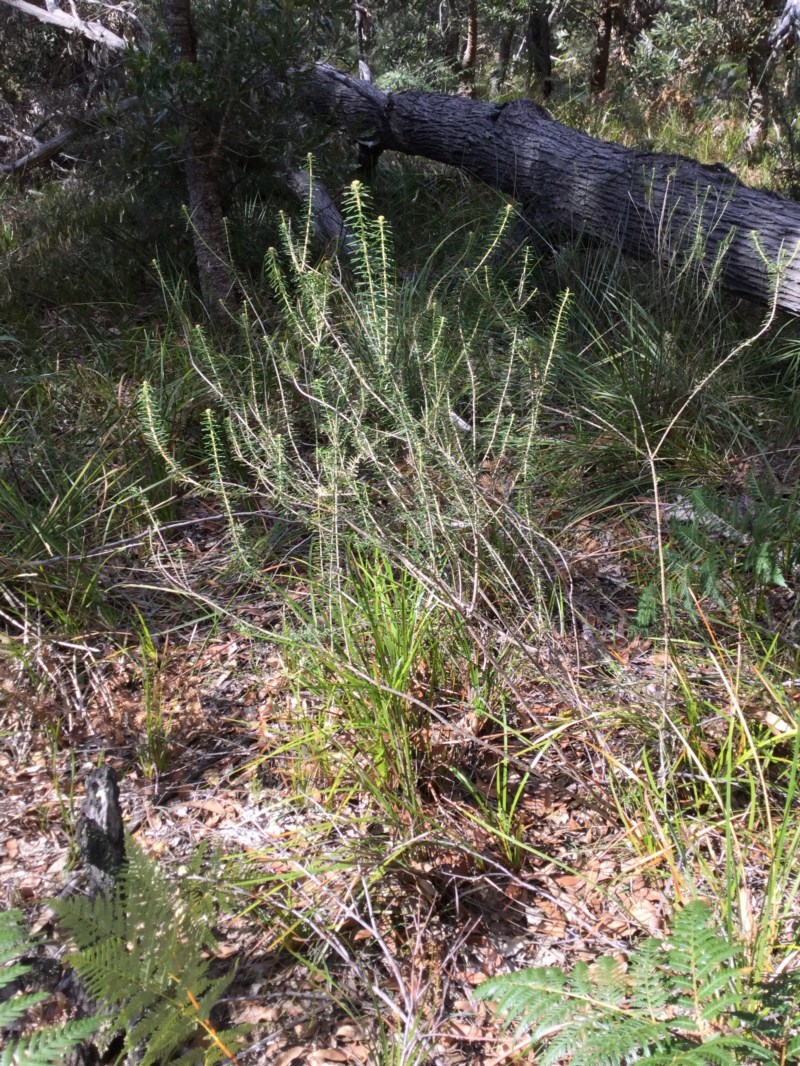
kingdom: Plantae
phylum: Tracheophyta
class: Magnoliopsida
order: Apiales
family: Araliaceae
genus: Astrotricha
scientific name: Astrotricha
